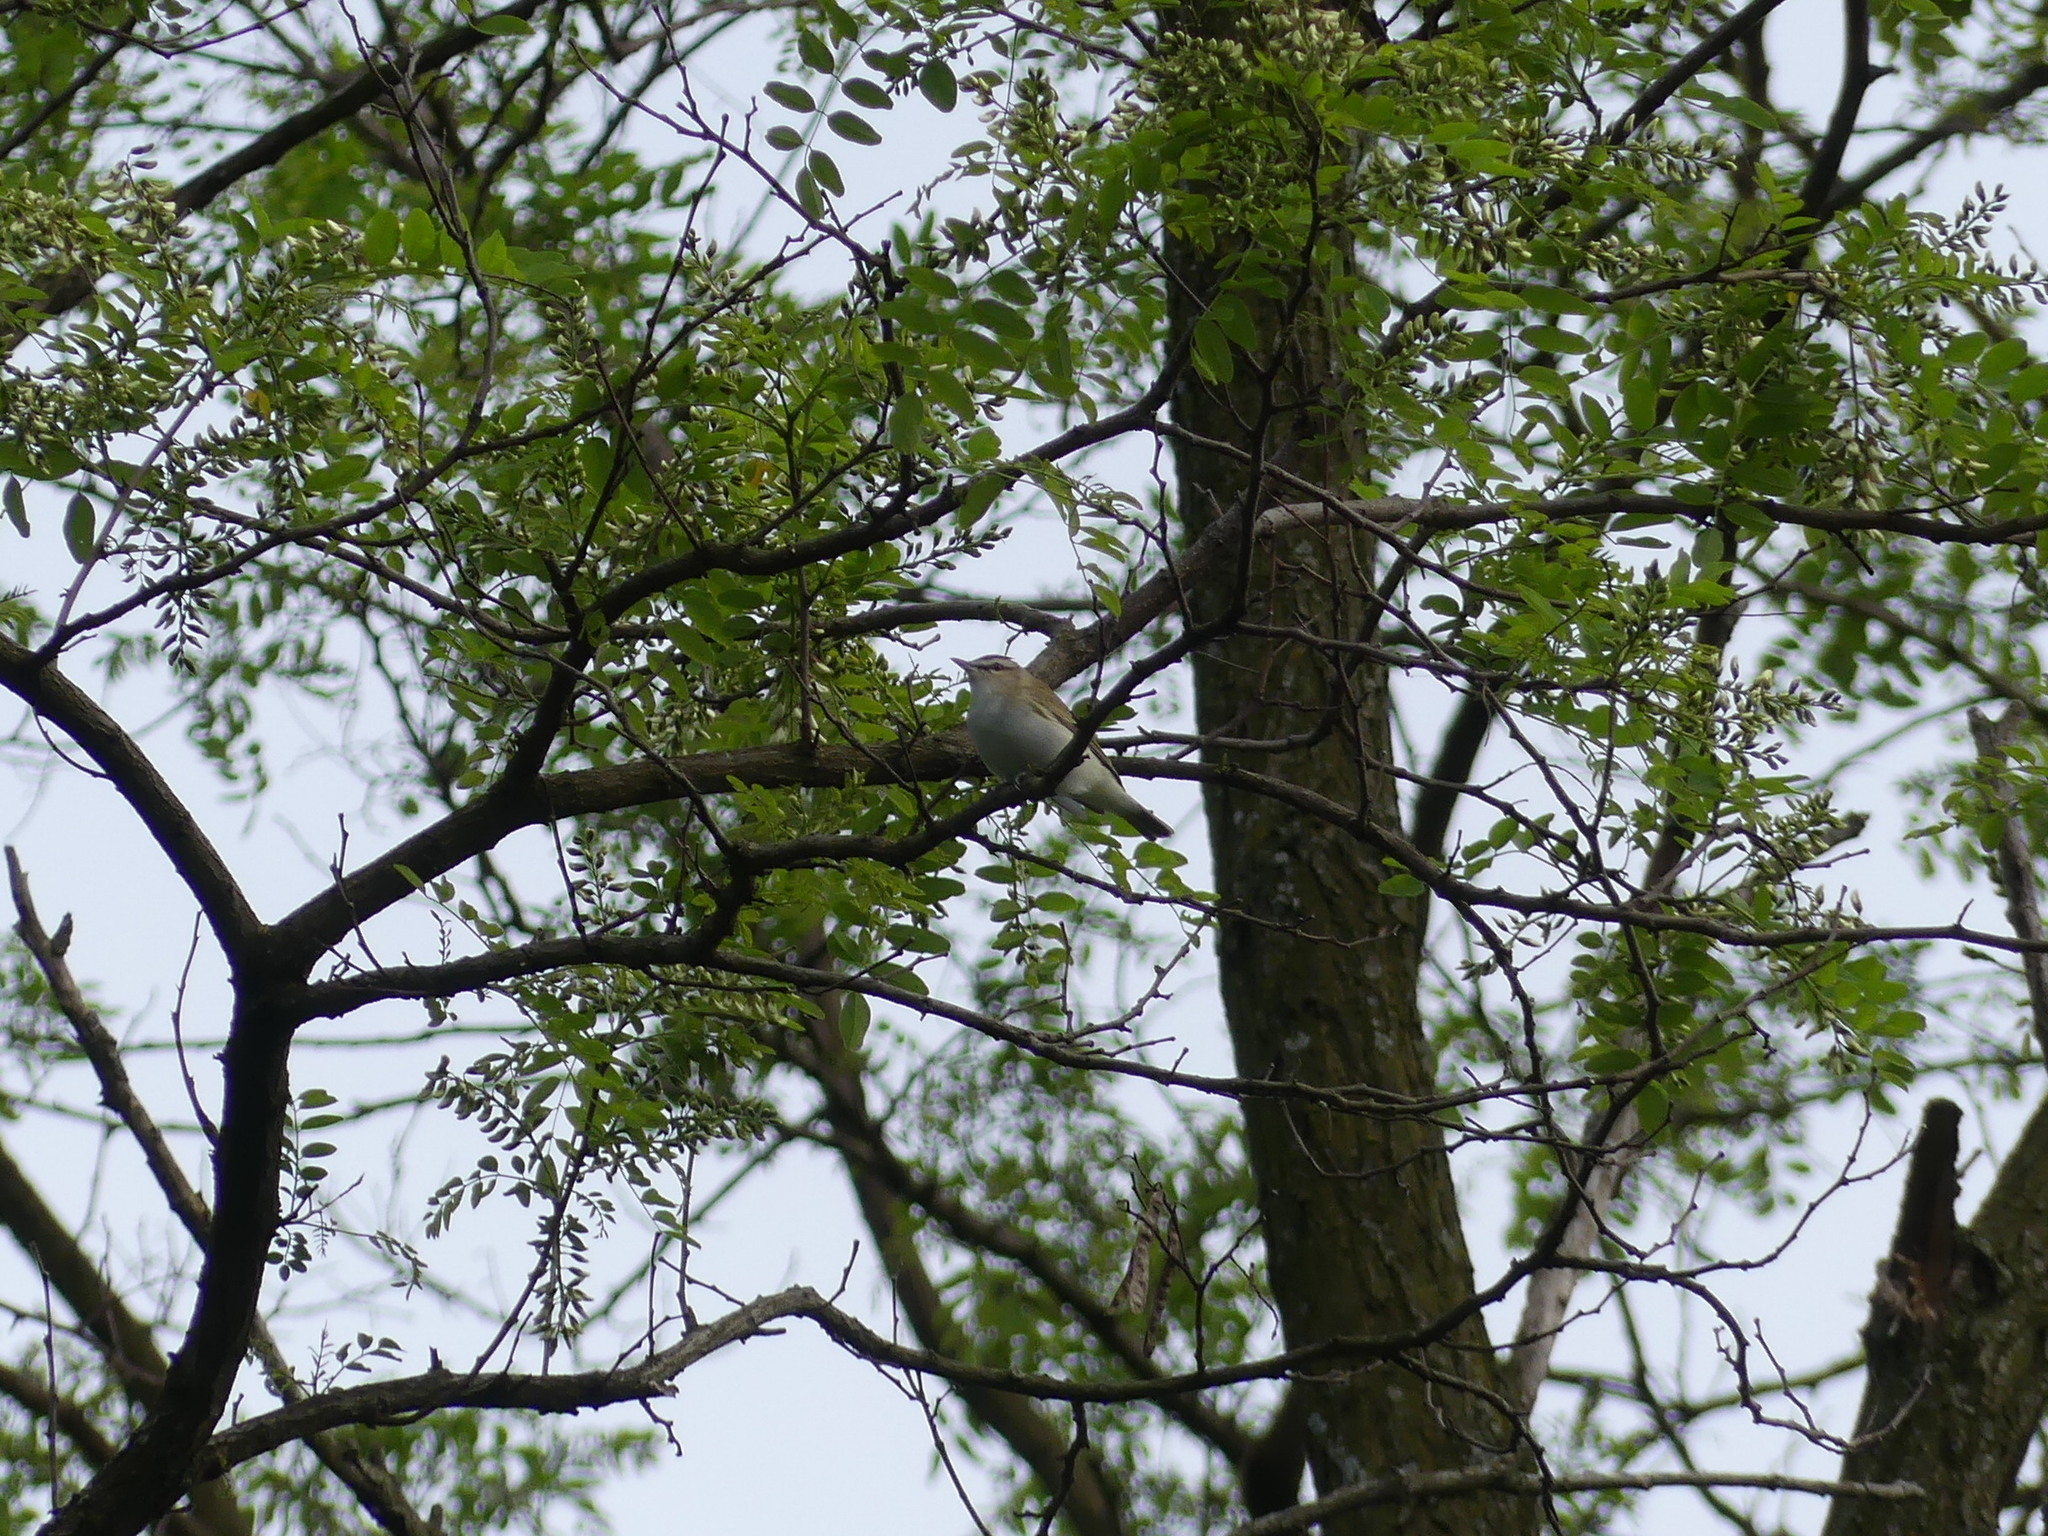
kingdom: Animalia
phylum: Chordata
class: Aves
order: Passeriformes
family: Vireonidae
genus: Vireo
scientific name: Vireo olivaceus
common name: Red-eyed vireo
